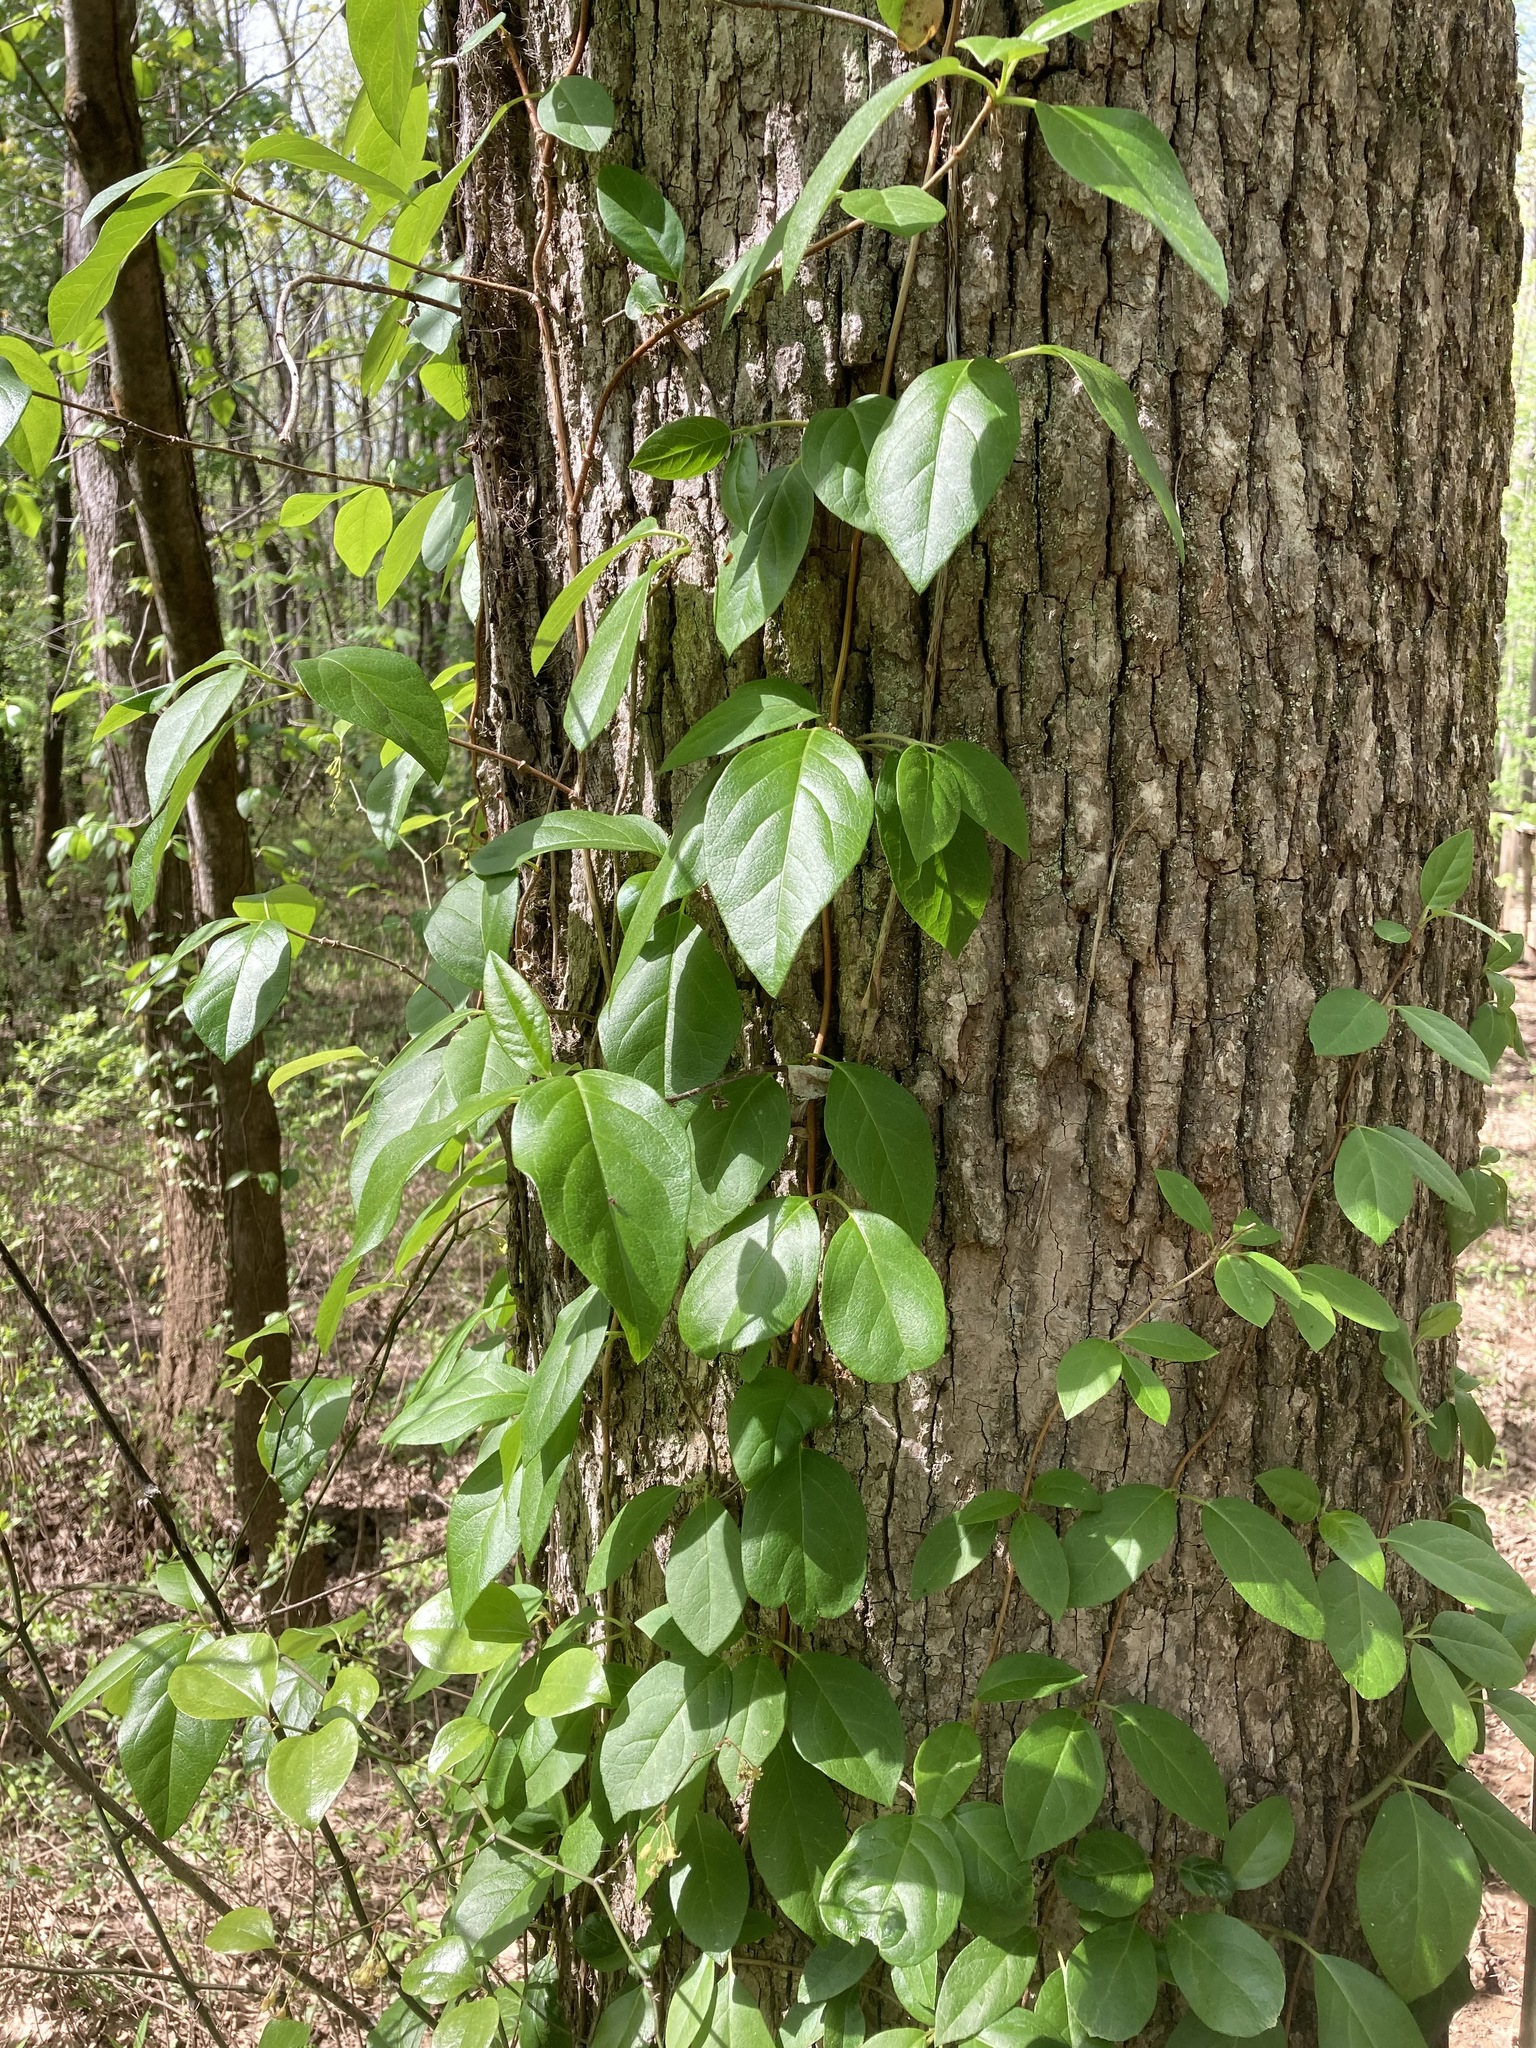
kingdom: Plantae
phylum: Tracheophyta
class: Magnoliopsida
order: Cornales
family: Hydrangeaceae
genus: Hydrangea
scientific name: Hydrangea barbara
